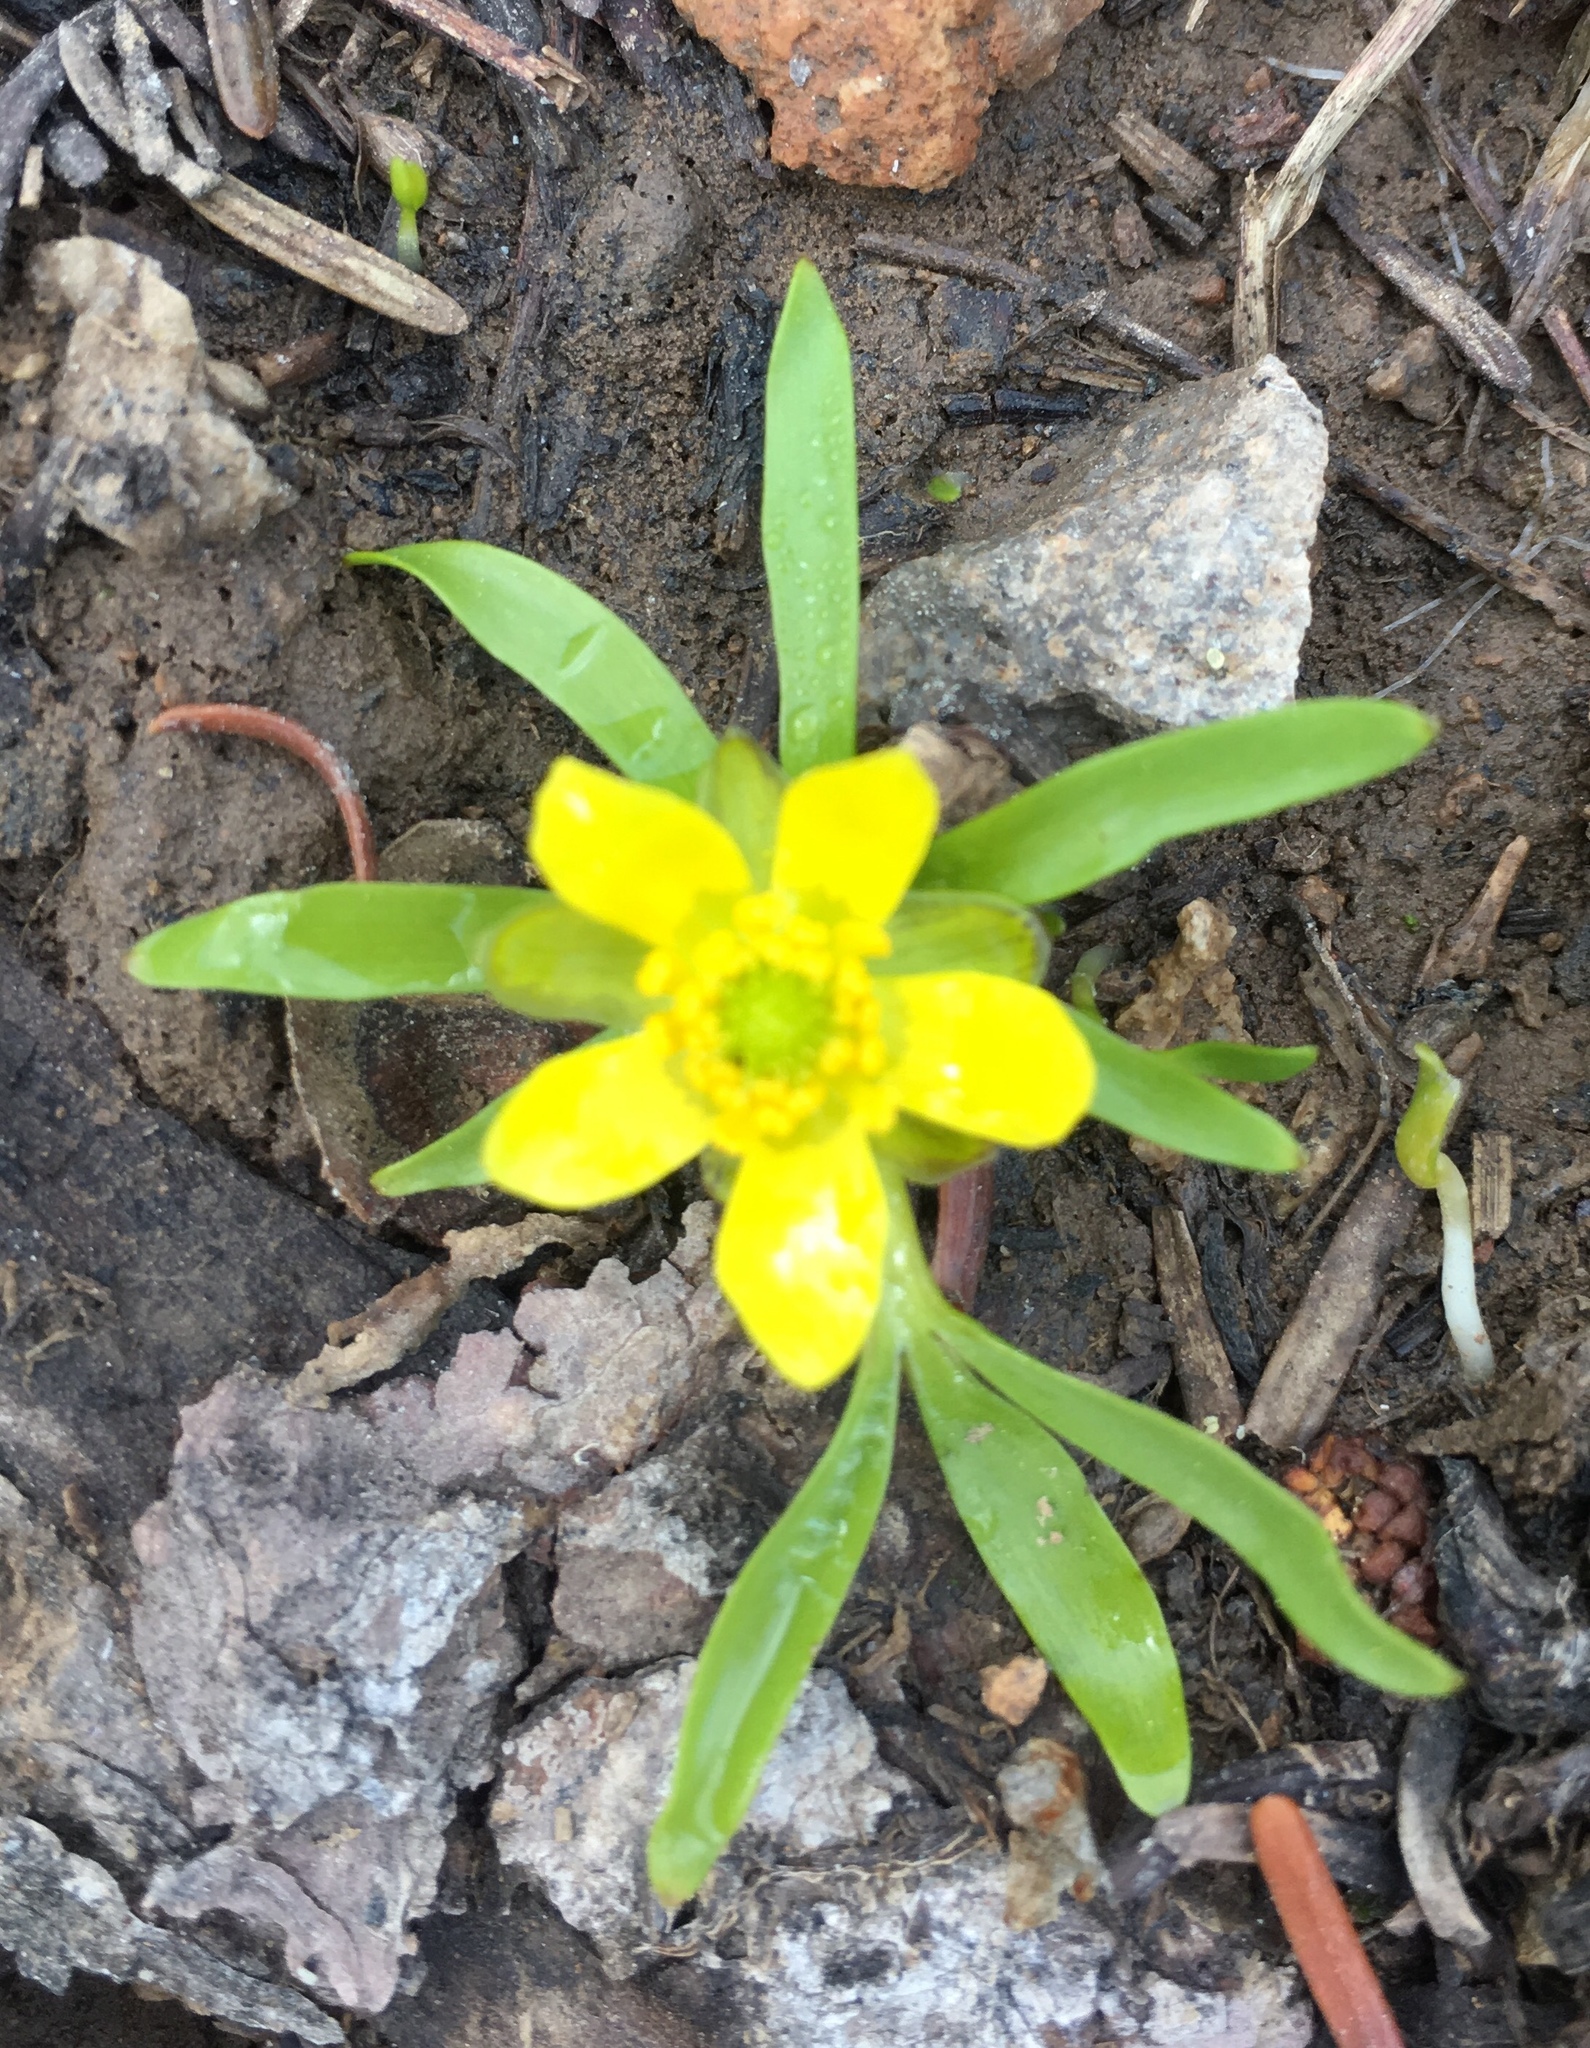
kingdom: Plantae
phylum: Tracheophyta
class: Magnoliopsida
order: Ranunculales
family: Ranunculaceae
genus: Ranunculus
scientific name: Ranunculus digitatus
